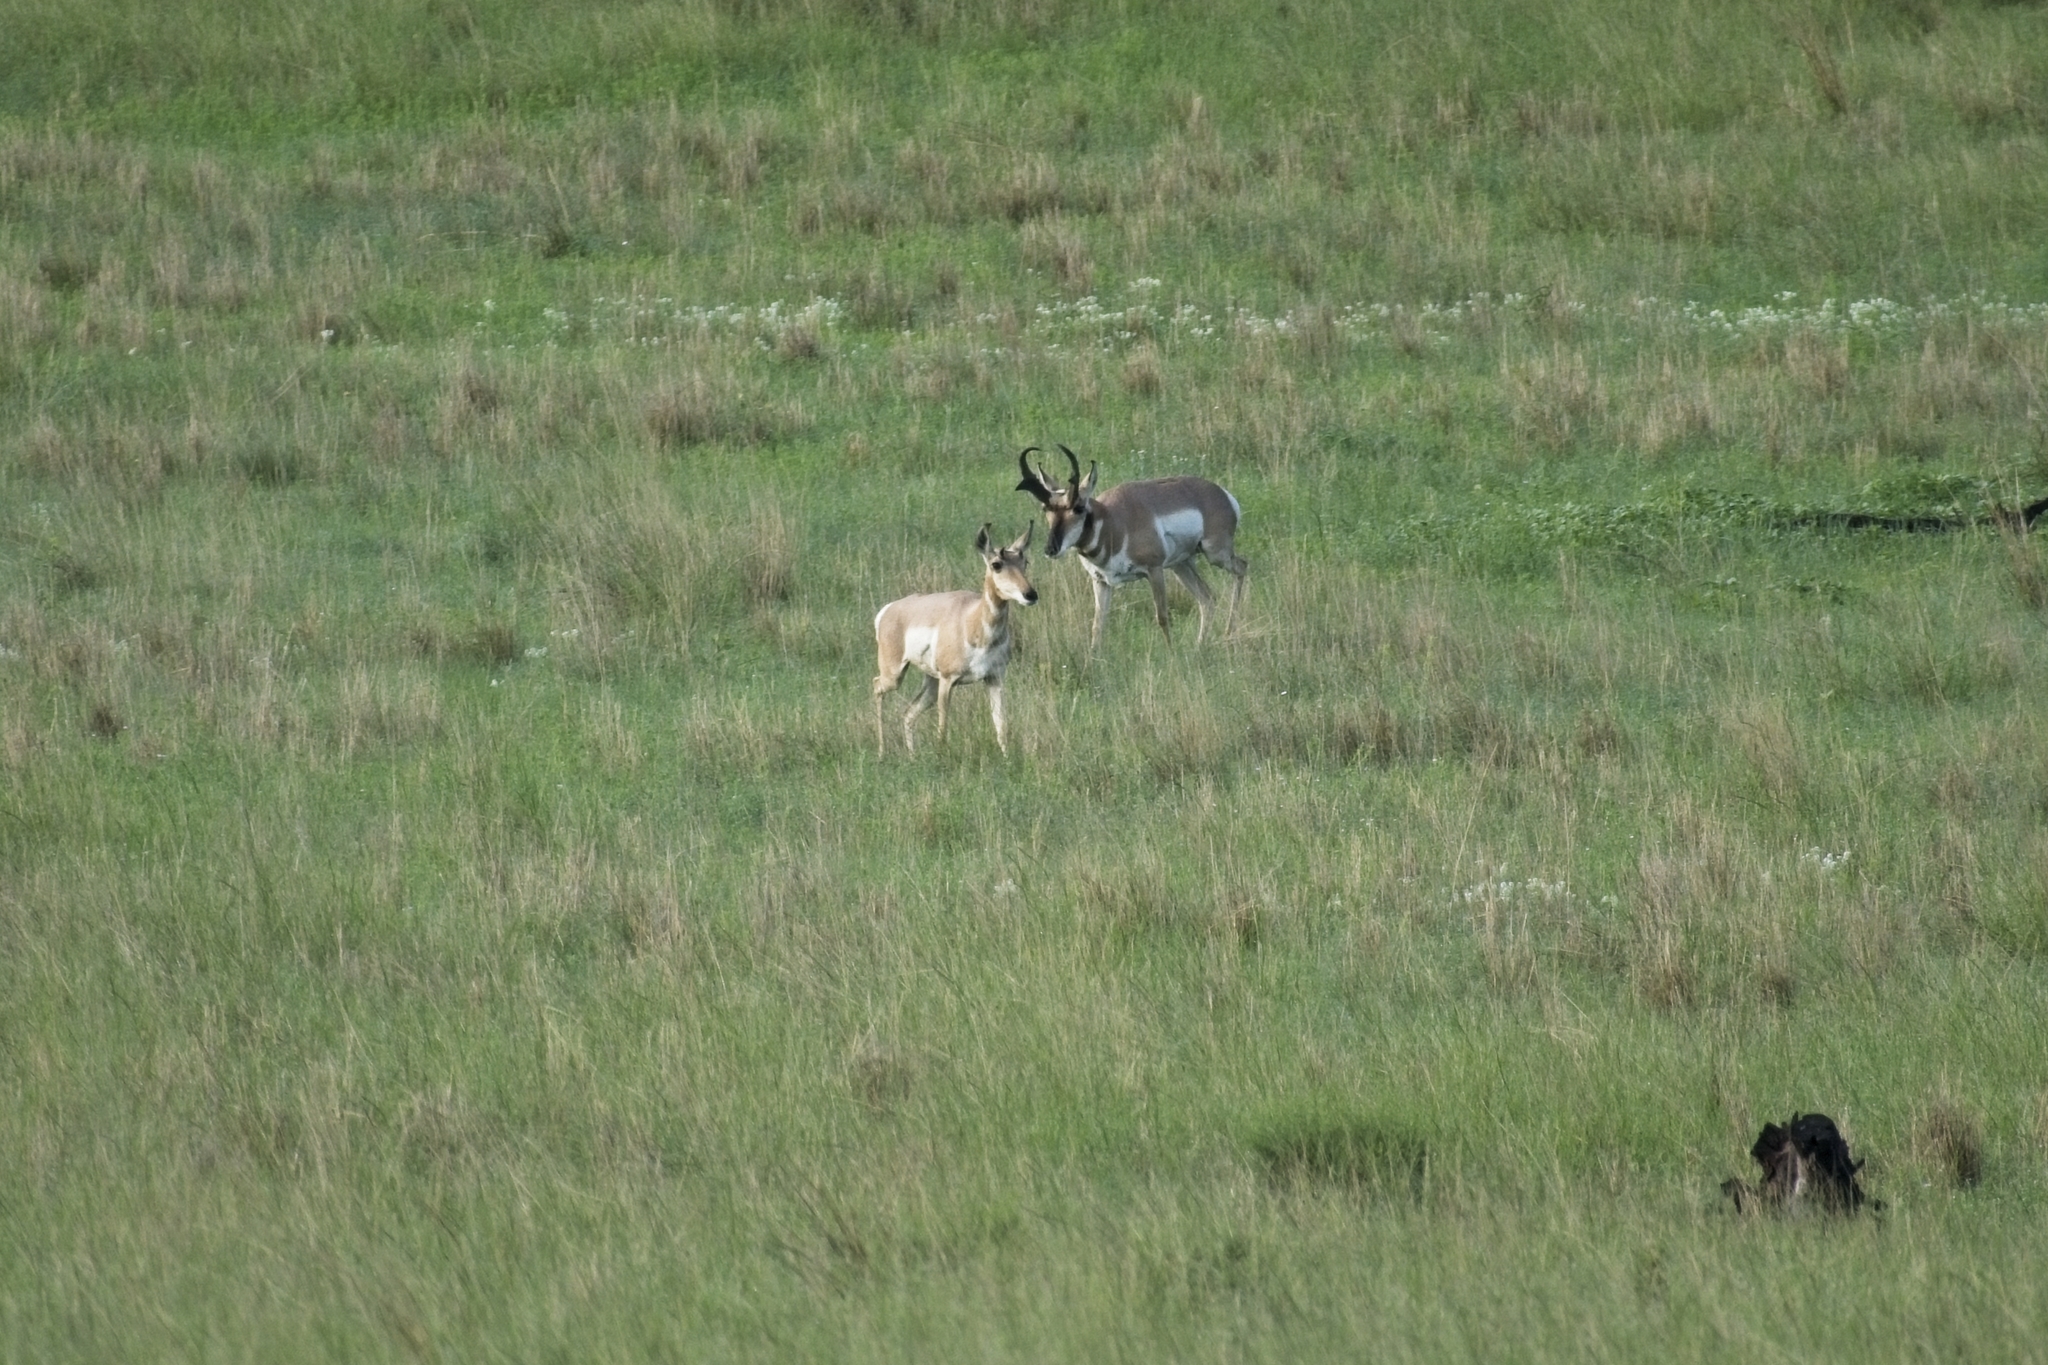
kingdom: Animalia
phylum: Chordata
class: Mammalia
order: Artiodactyla
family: Antilocapridae
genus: Antilocapra
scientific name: Antilocapra americana
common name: Pronghorn
